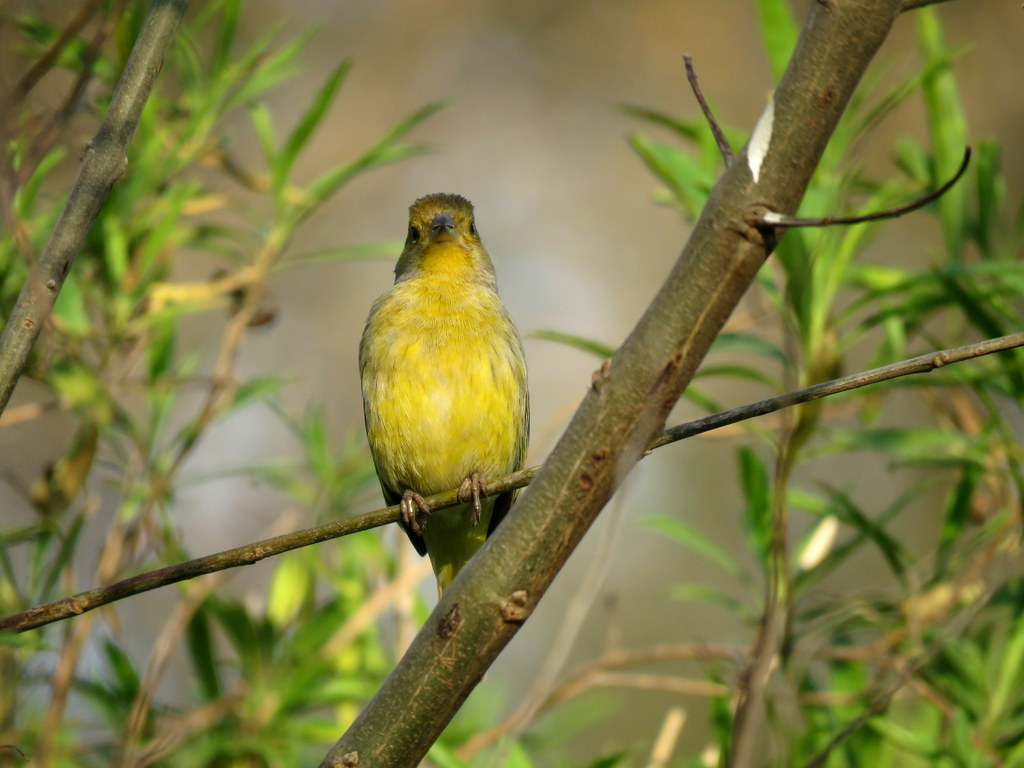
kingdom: Animalia
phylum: Chordata
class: Aves
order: Passeriformes
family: Thraupidae
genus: Sicalis
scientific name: Sicalis flaveola
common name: Saffron finch
